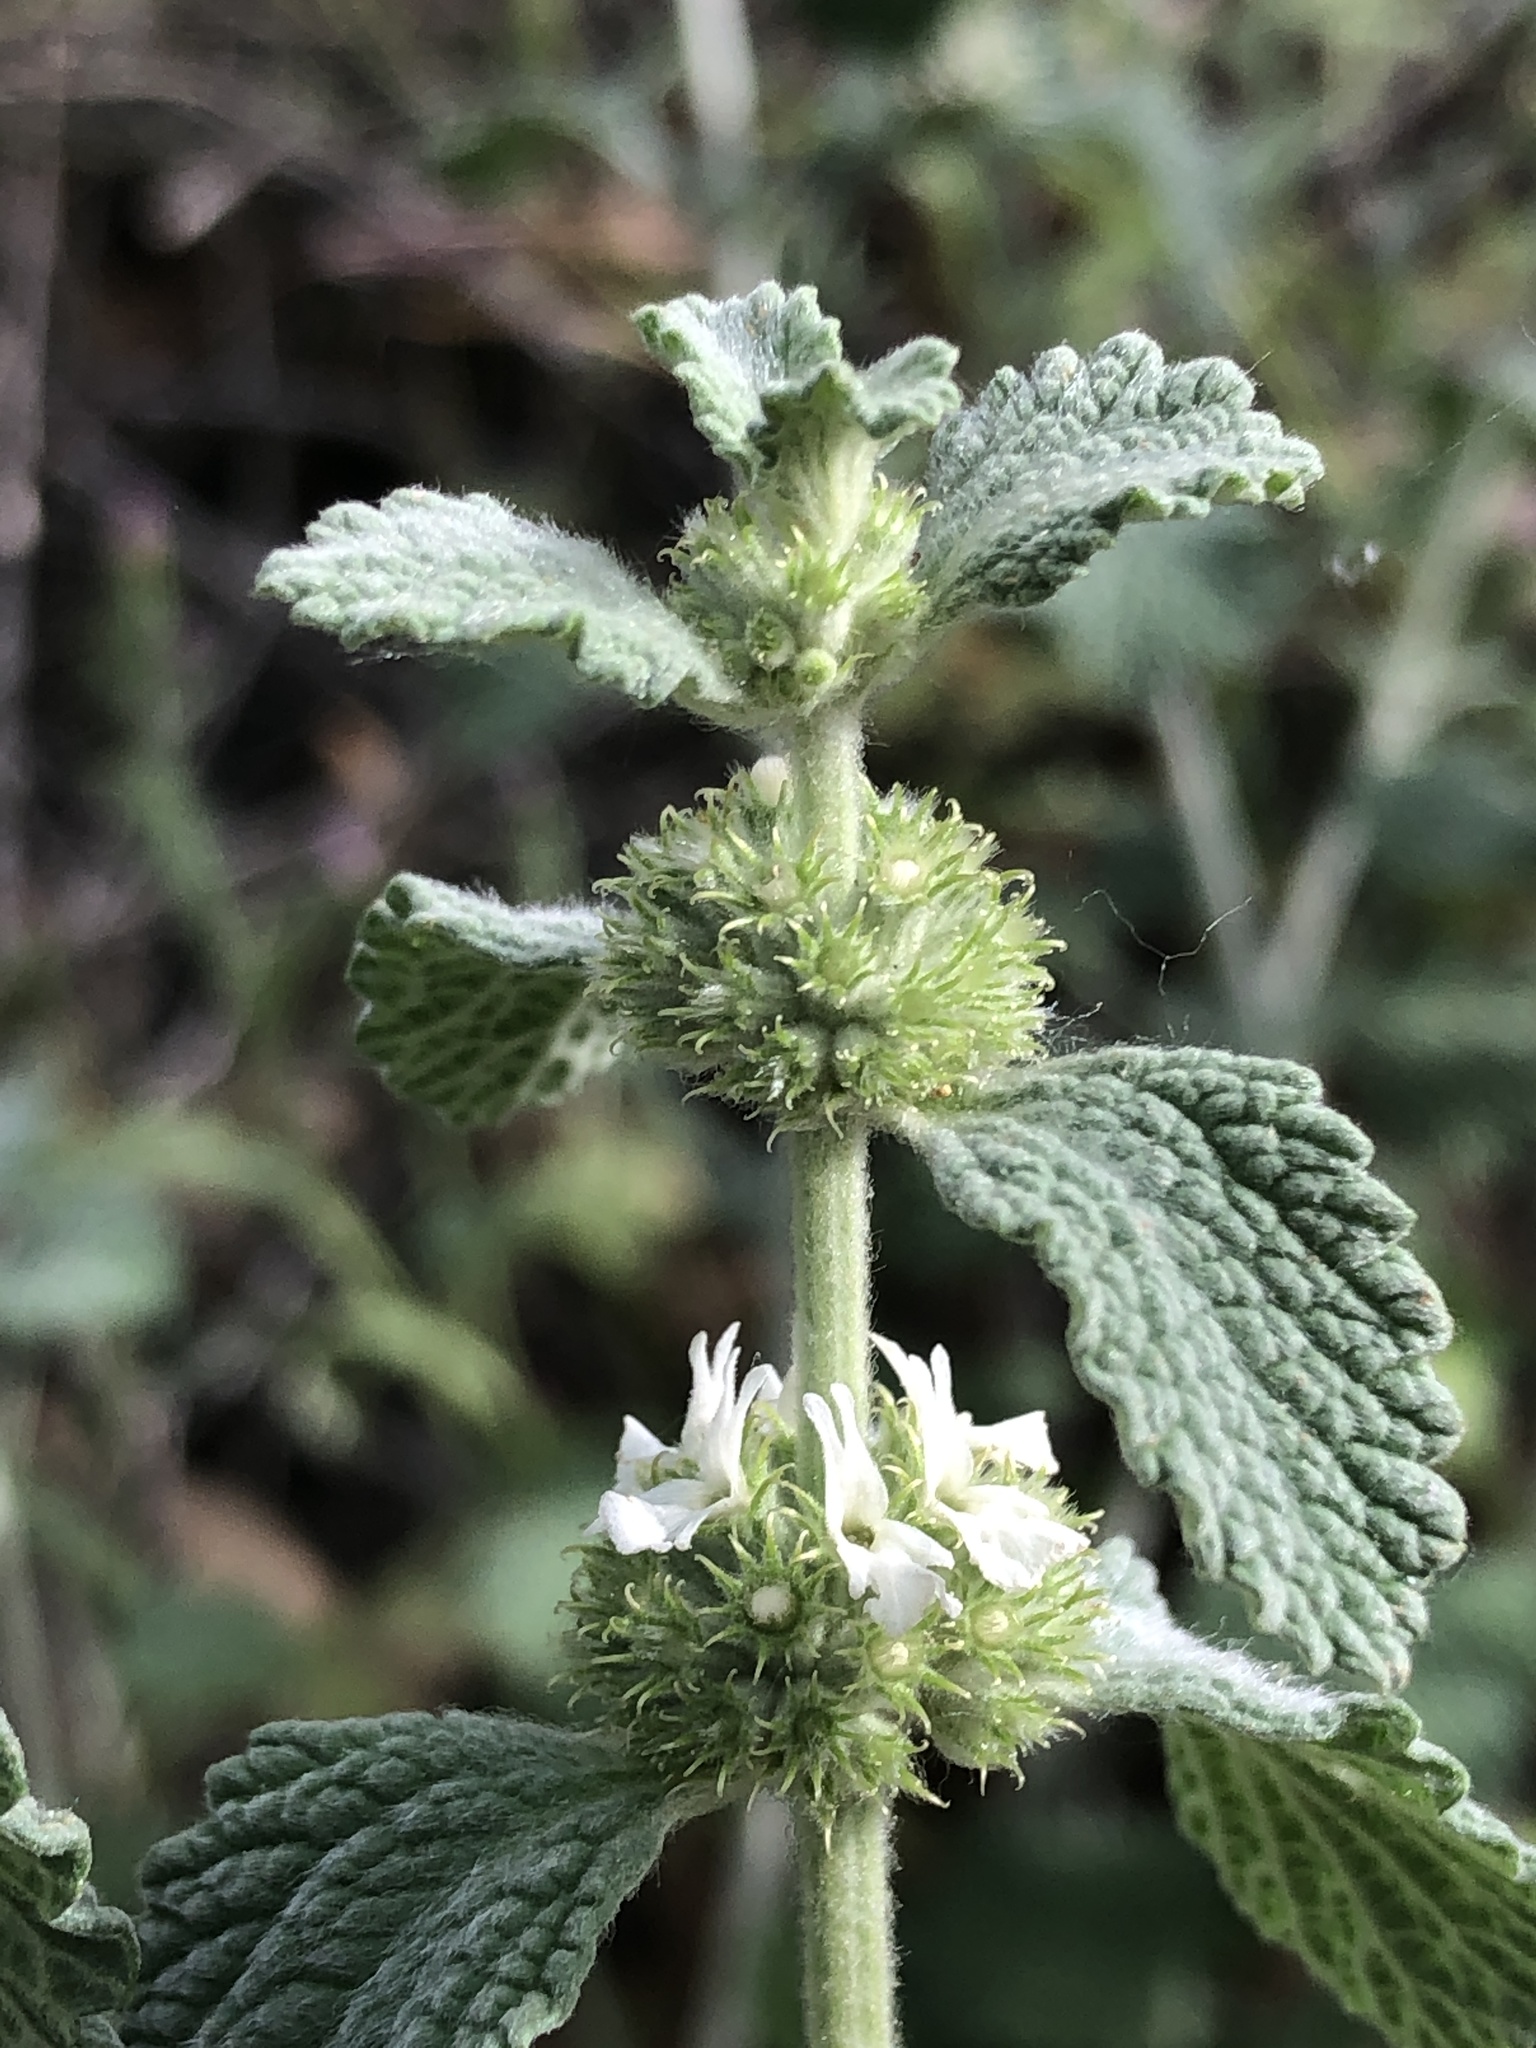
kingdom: Plantae
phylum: Tracheophyta
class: Magnoliopsida
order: Lamiales
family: Lamiaceae
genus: Marrubium
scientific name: Marrubium vulgare
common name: Horehound
